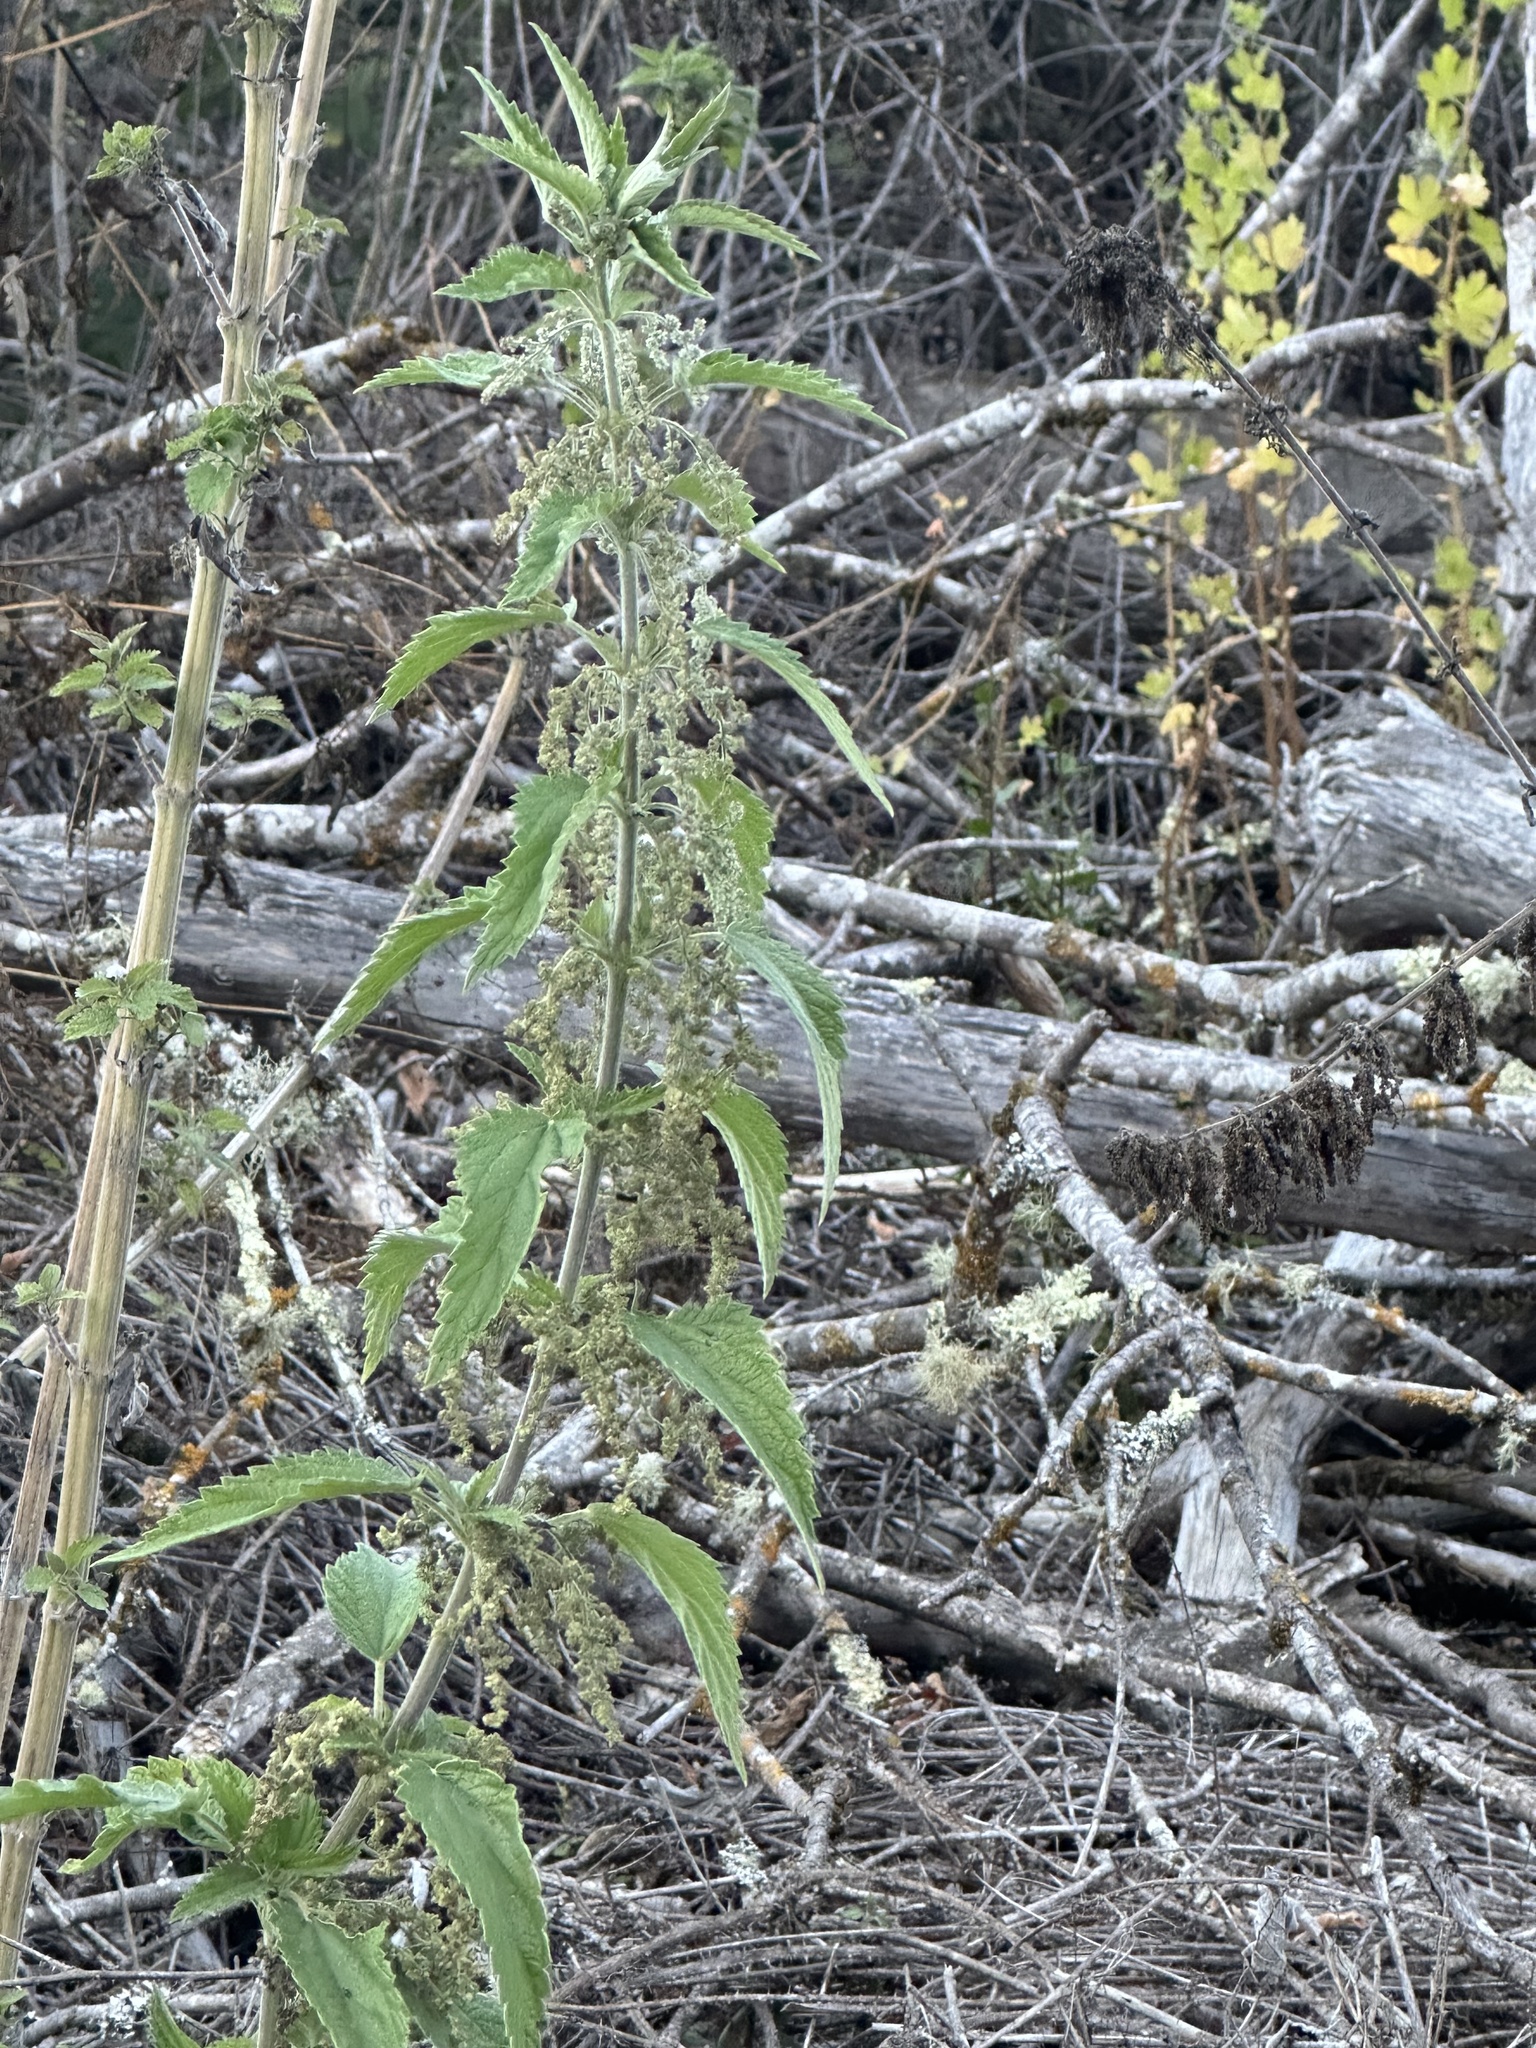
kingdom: Plantae
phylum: Tracheophyta
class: Magnoliopsida
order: Rosales
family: Urticaceae
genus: Urtica
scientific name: Urtica dioica
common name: Common nettle
